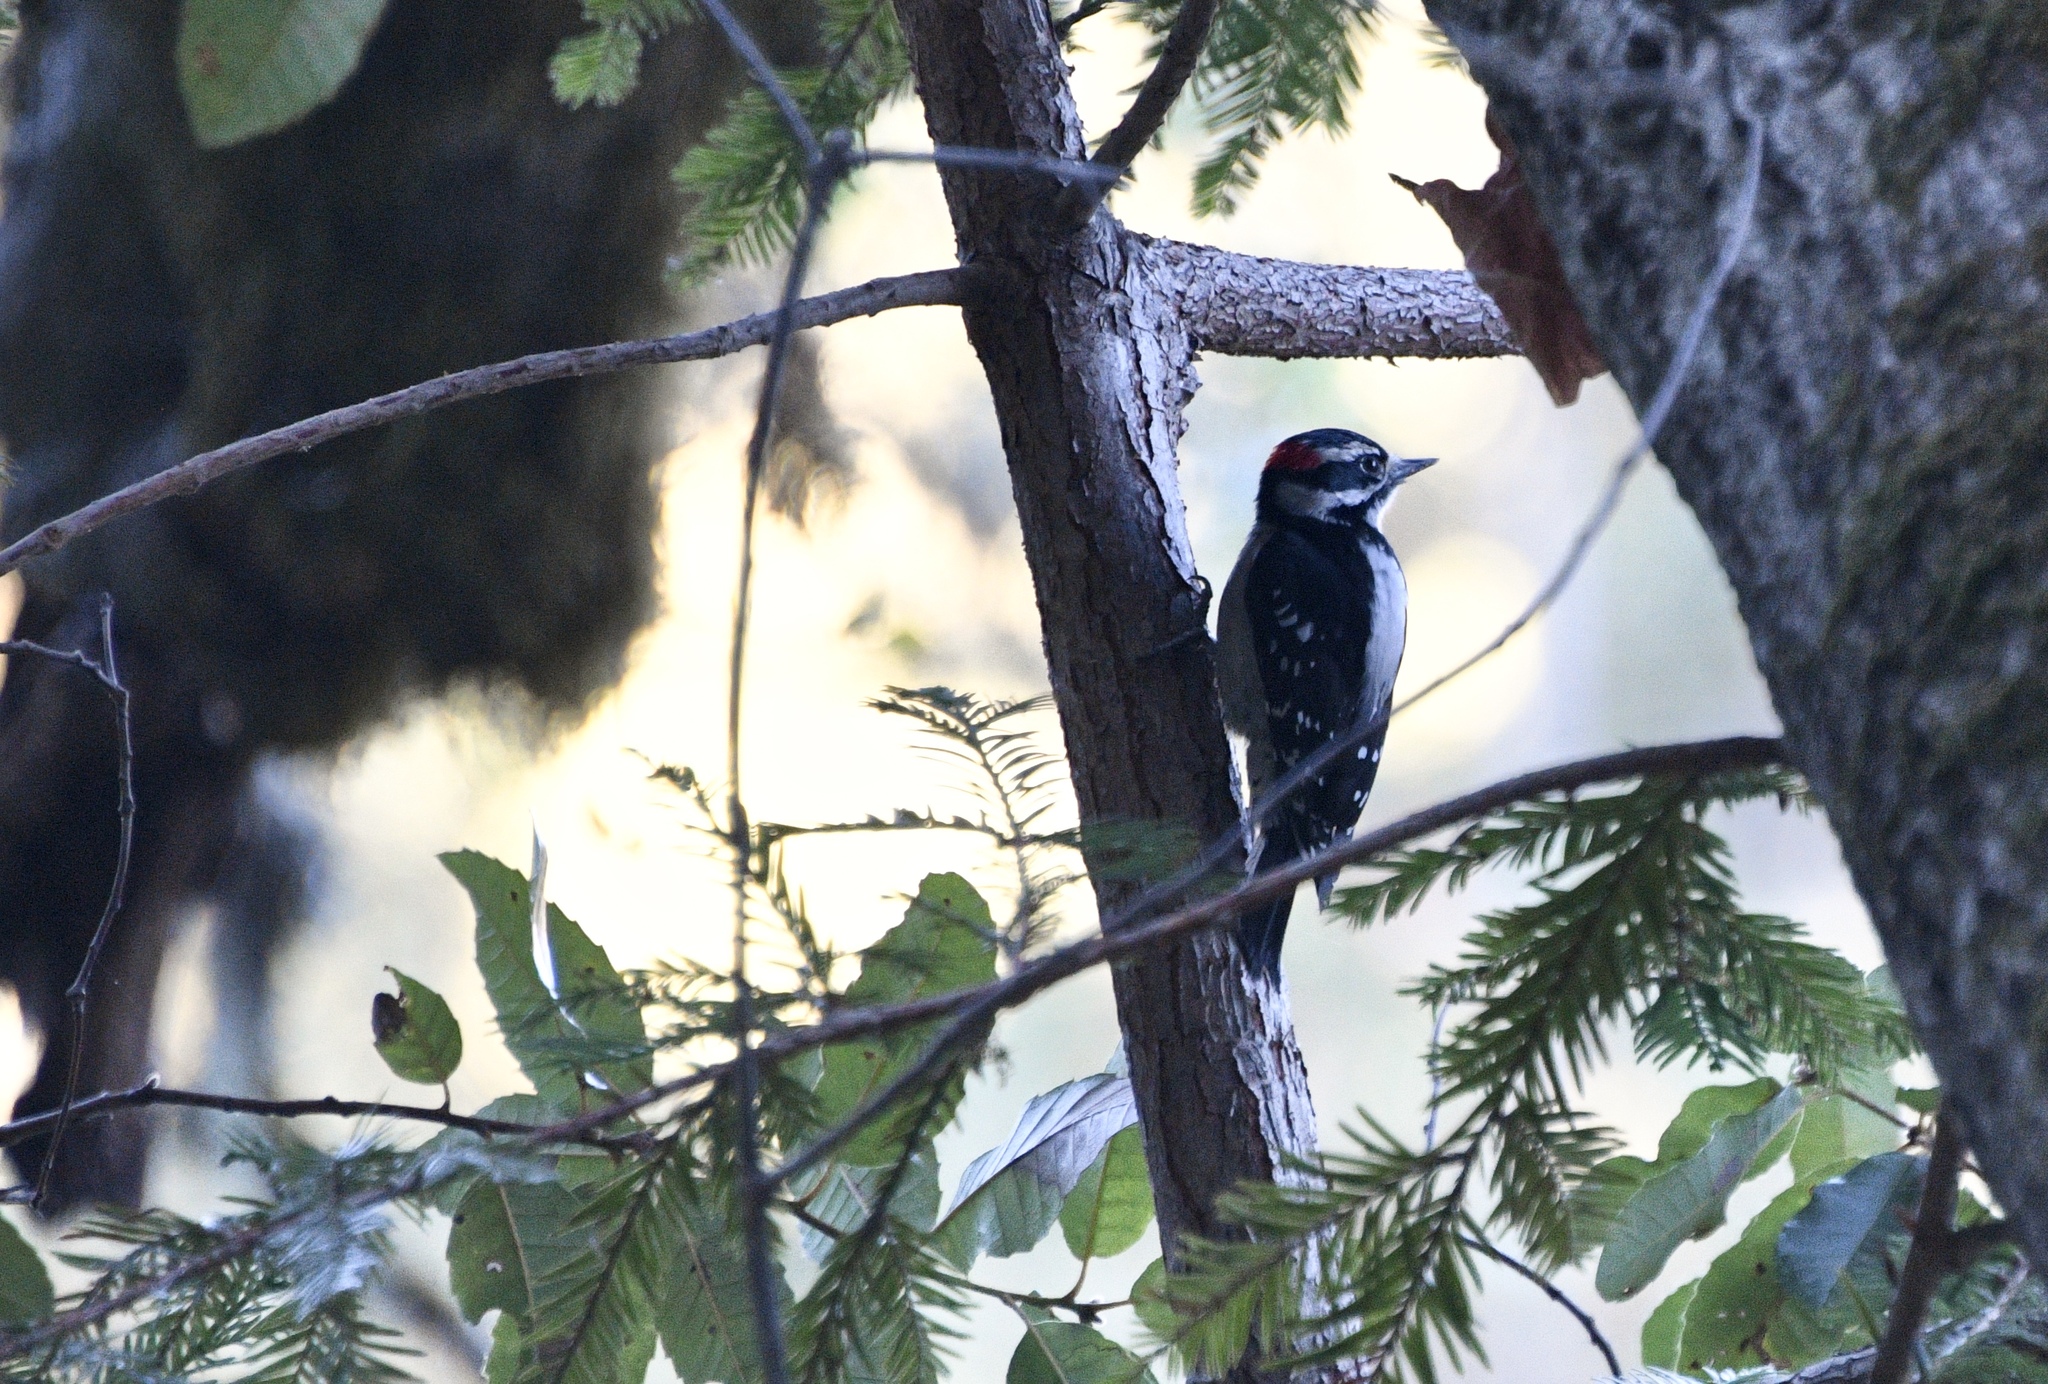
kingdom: Animalia
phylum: Chordata
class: Aves
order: Piciformes
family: Picidae
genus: Leuconotopicus
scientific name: Leuconotopicus villosus
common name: Hairy woodpecker
